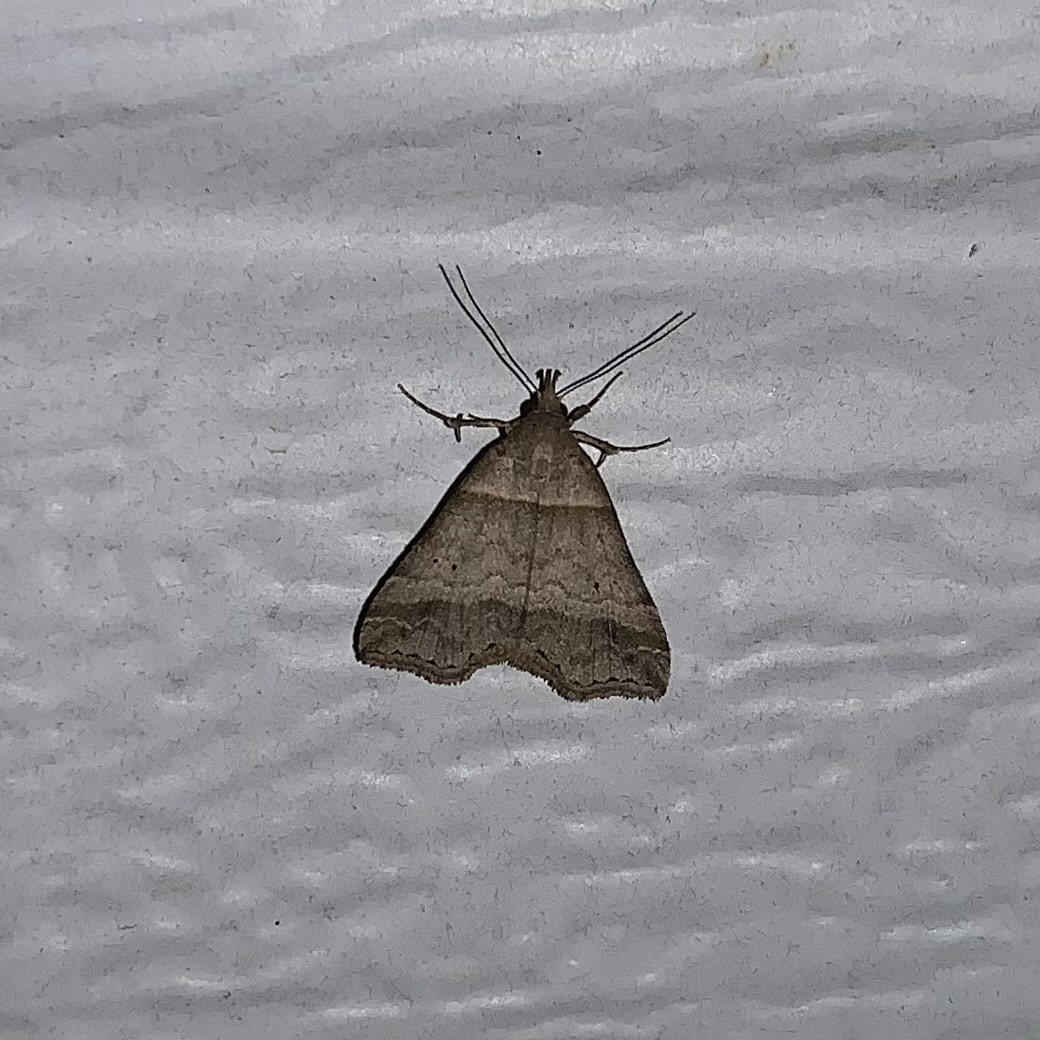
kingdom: Animalia
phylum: Arthropoda
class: Insecta
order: Lepidoptera
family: Erebidae
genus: Phaeolita
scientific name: Phaeolita pyramusalis
